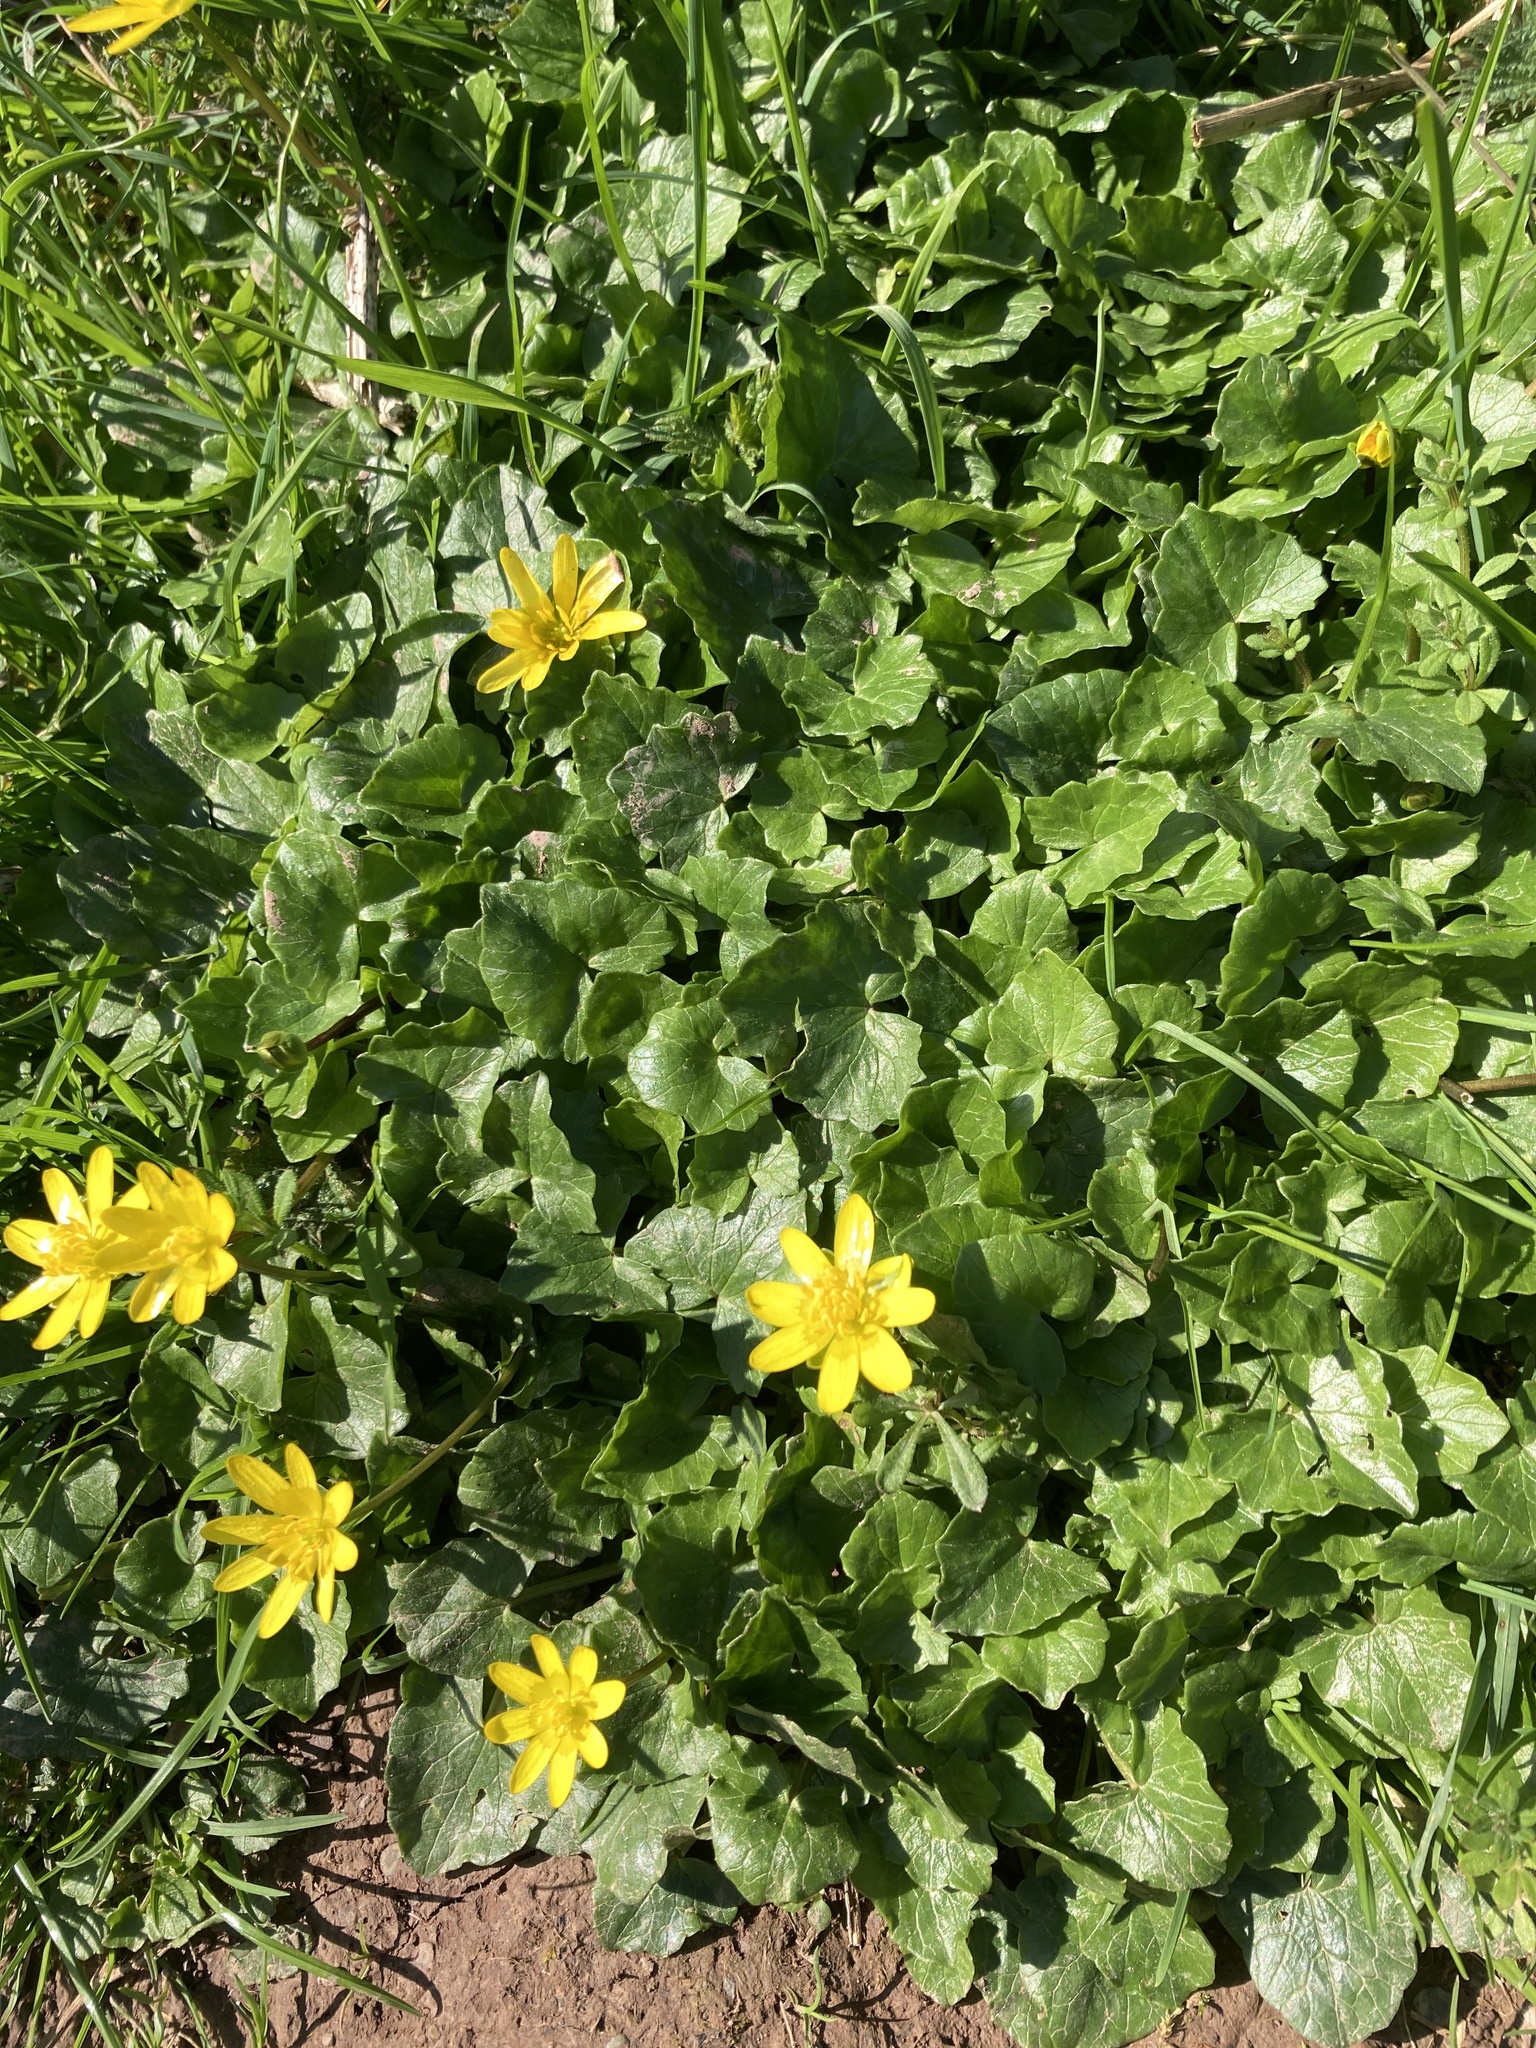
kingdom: Plantae
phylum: Tracheophyta
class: Magnoliopsida
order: Ranunculales
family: Ranunculaceae
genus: Ficaria
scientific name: Ficaria verna
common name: Lesser celandine
